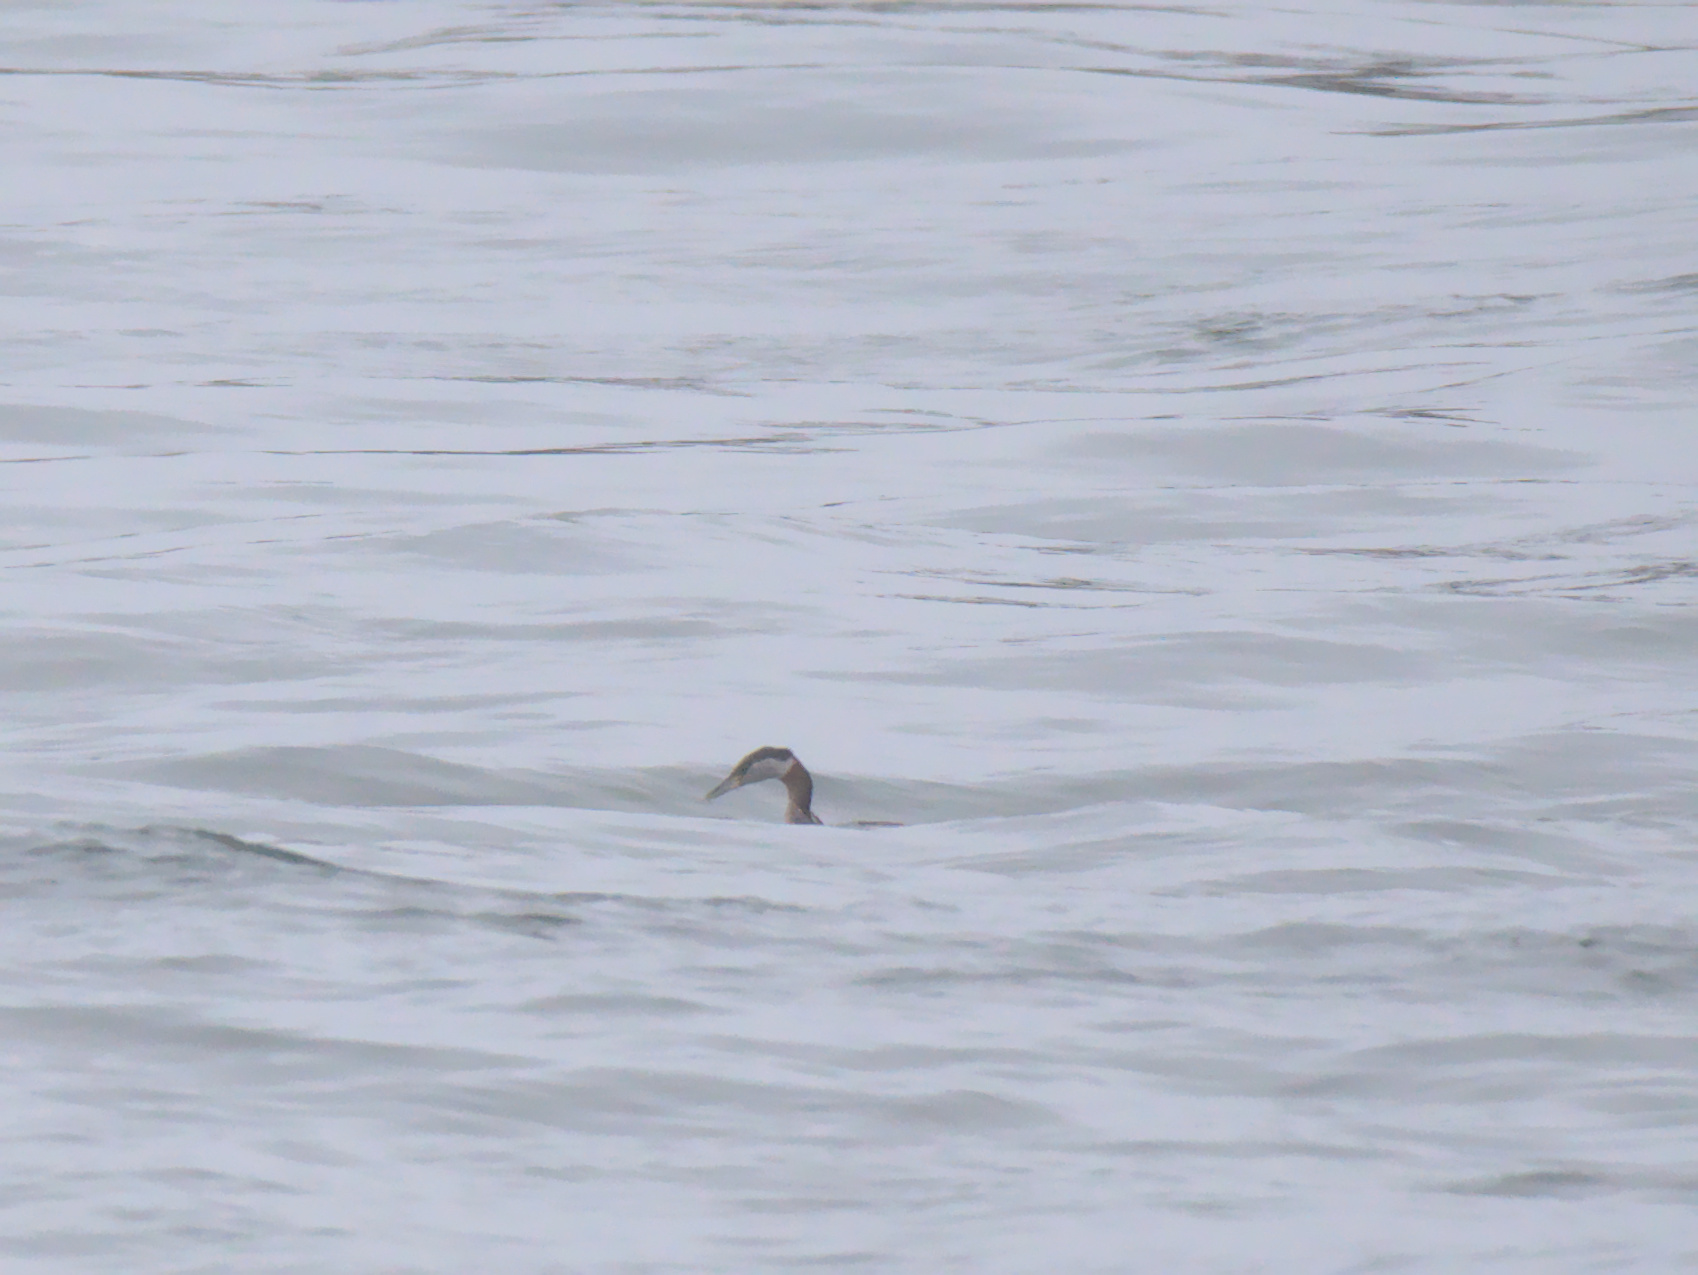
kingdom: Animalia
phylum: Chordata
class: Aves
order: Podicipediformes
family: Podicipedidae
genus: Podiceps
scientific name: Podiceps grisegena
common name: Red-necked grebe
